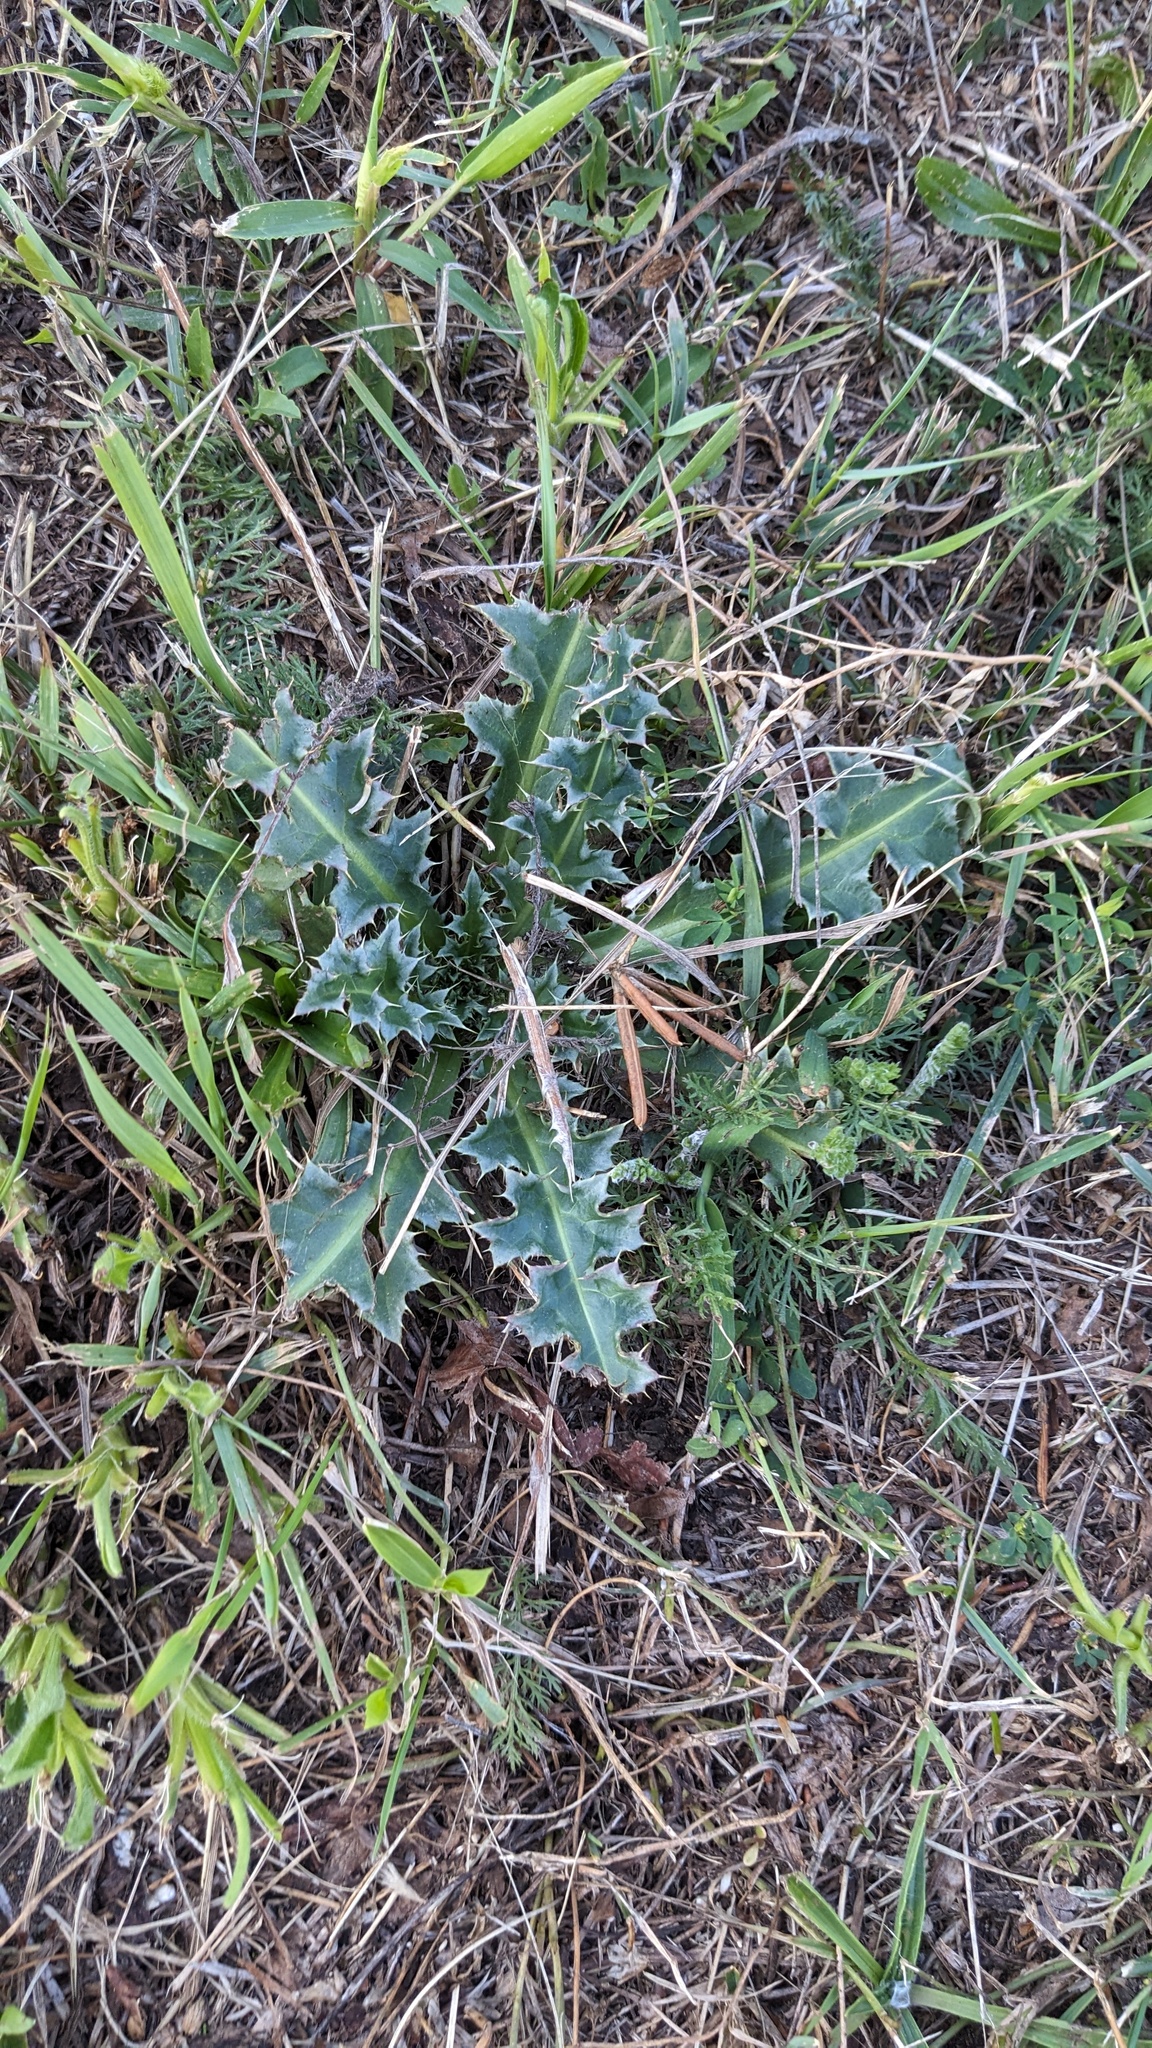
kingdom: Plantae
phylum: Tracheophyta
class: Magnoliopsida
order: Asterales
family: Asteraceae
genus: Carduus
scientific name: Carduus nutans
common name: Musk thistle
